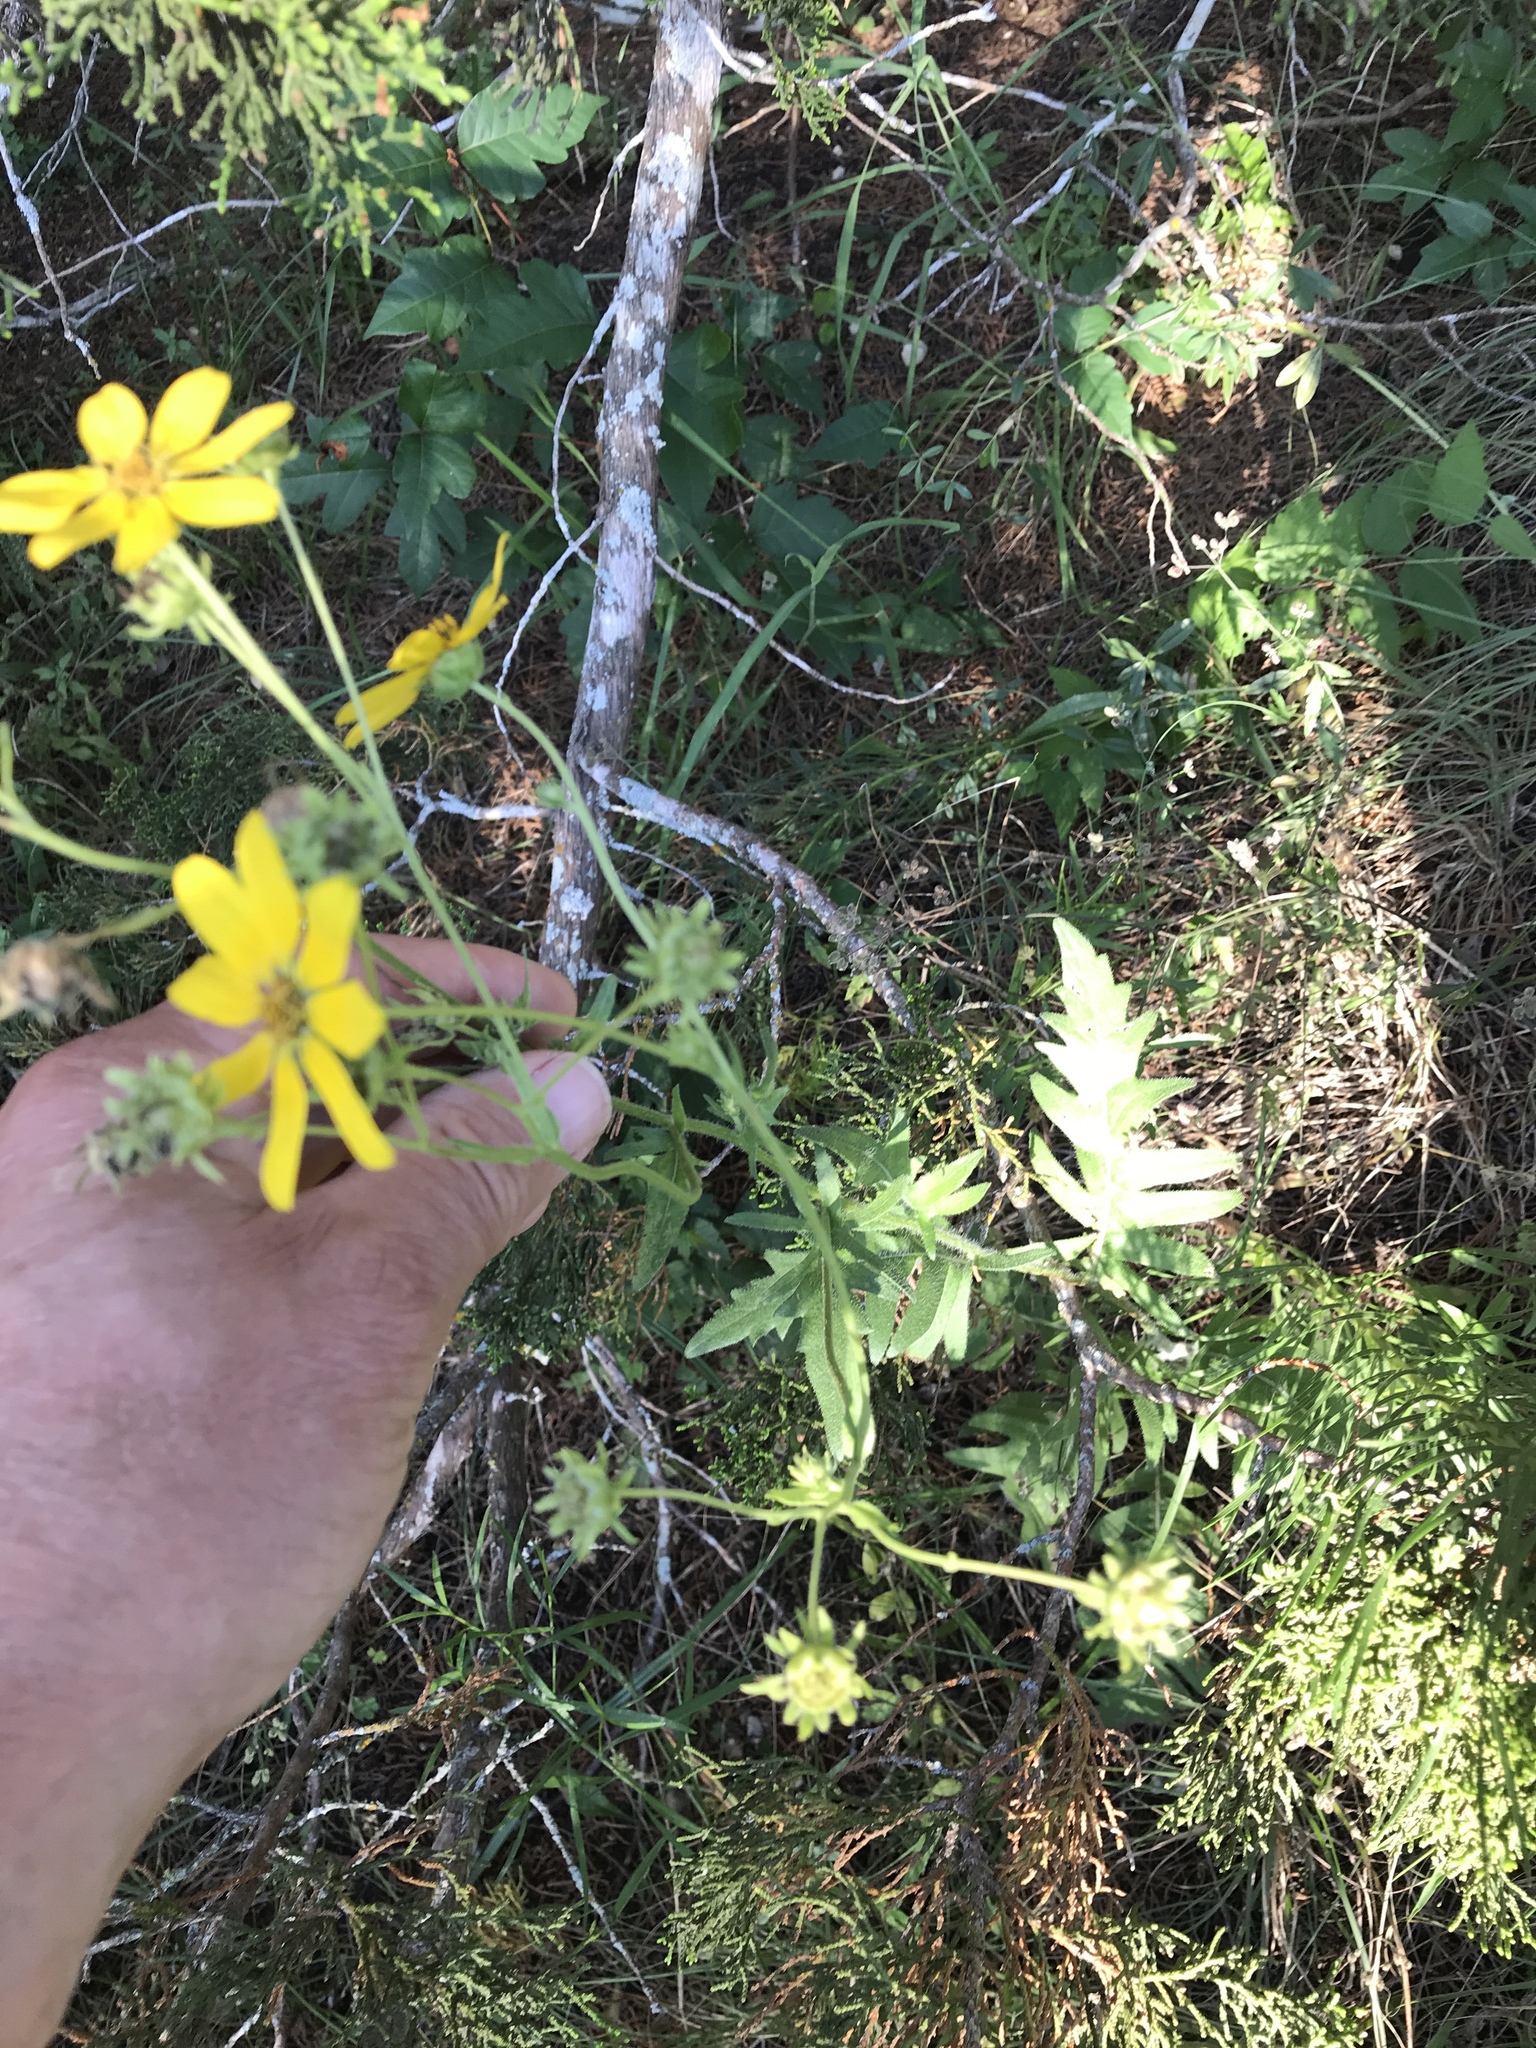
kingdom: Plantae
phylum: Tracheophyta
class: Magnoliopsida
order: Asterales
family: Asteraceae
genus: Engelmannia
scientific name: Engelmannia peristenia
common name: Engelmann's daisy
